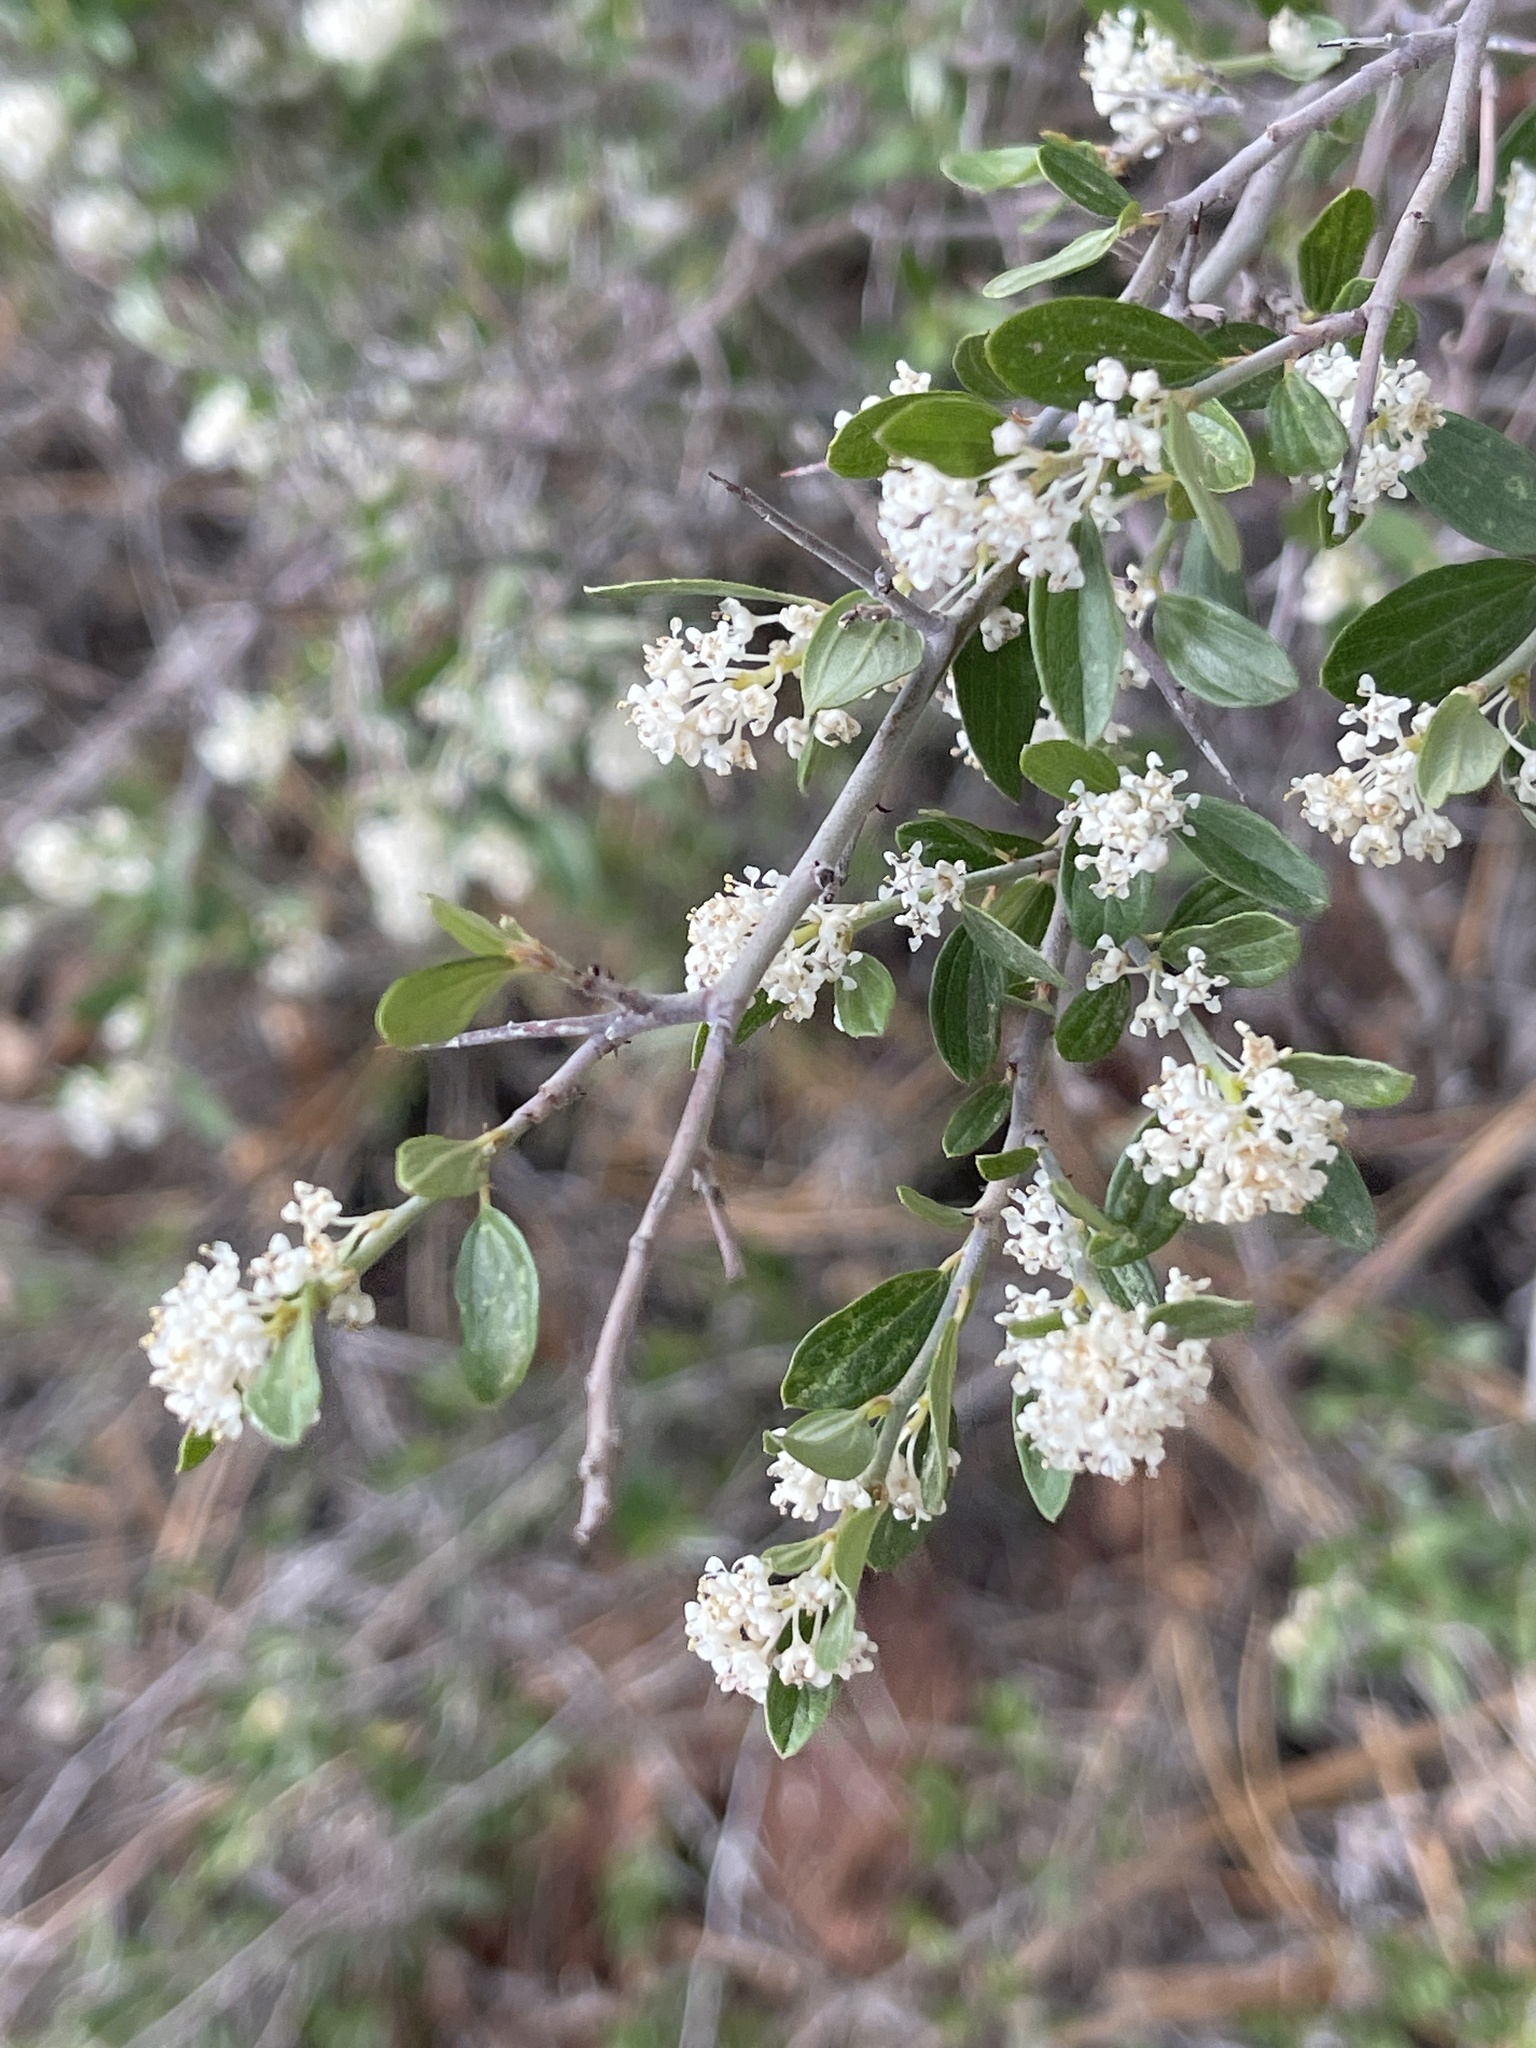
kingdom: Plantae
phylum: Tracheophyta
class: Magnoliopsida
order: Rosales
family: Rhamnaceae
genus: Ceanothus
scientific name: Ceanothus fendleri
